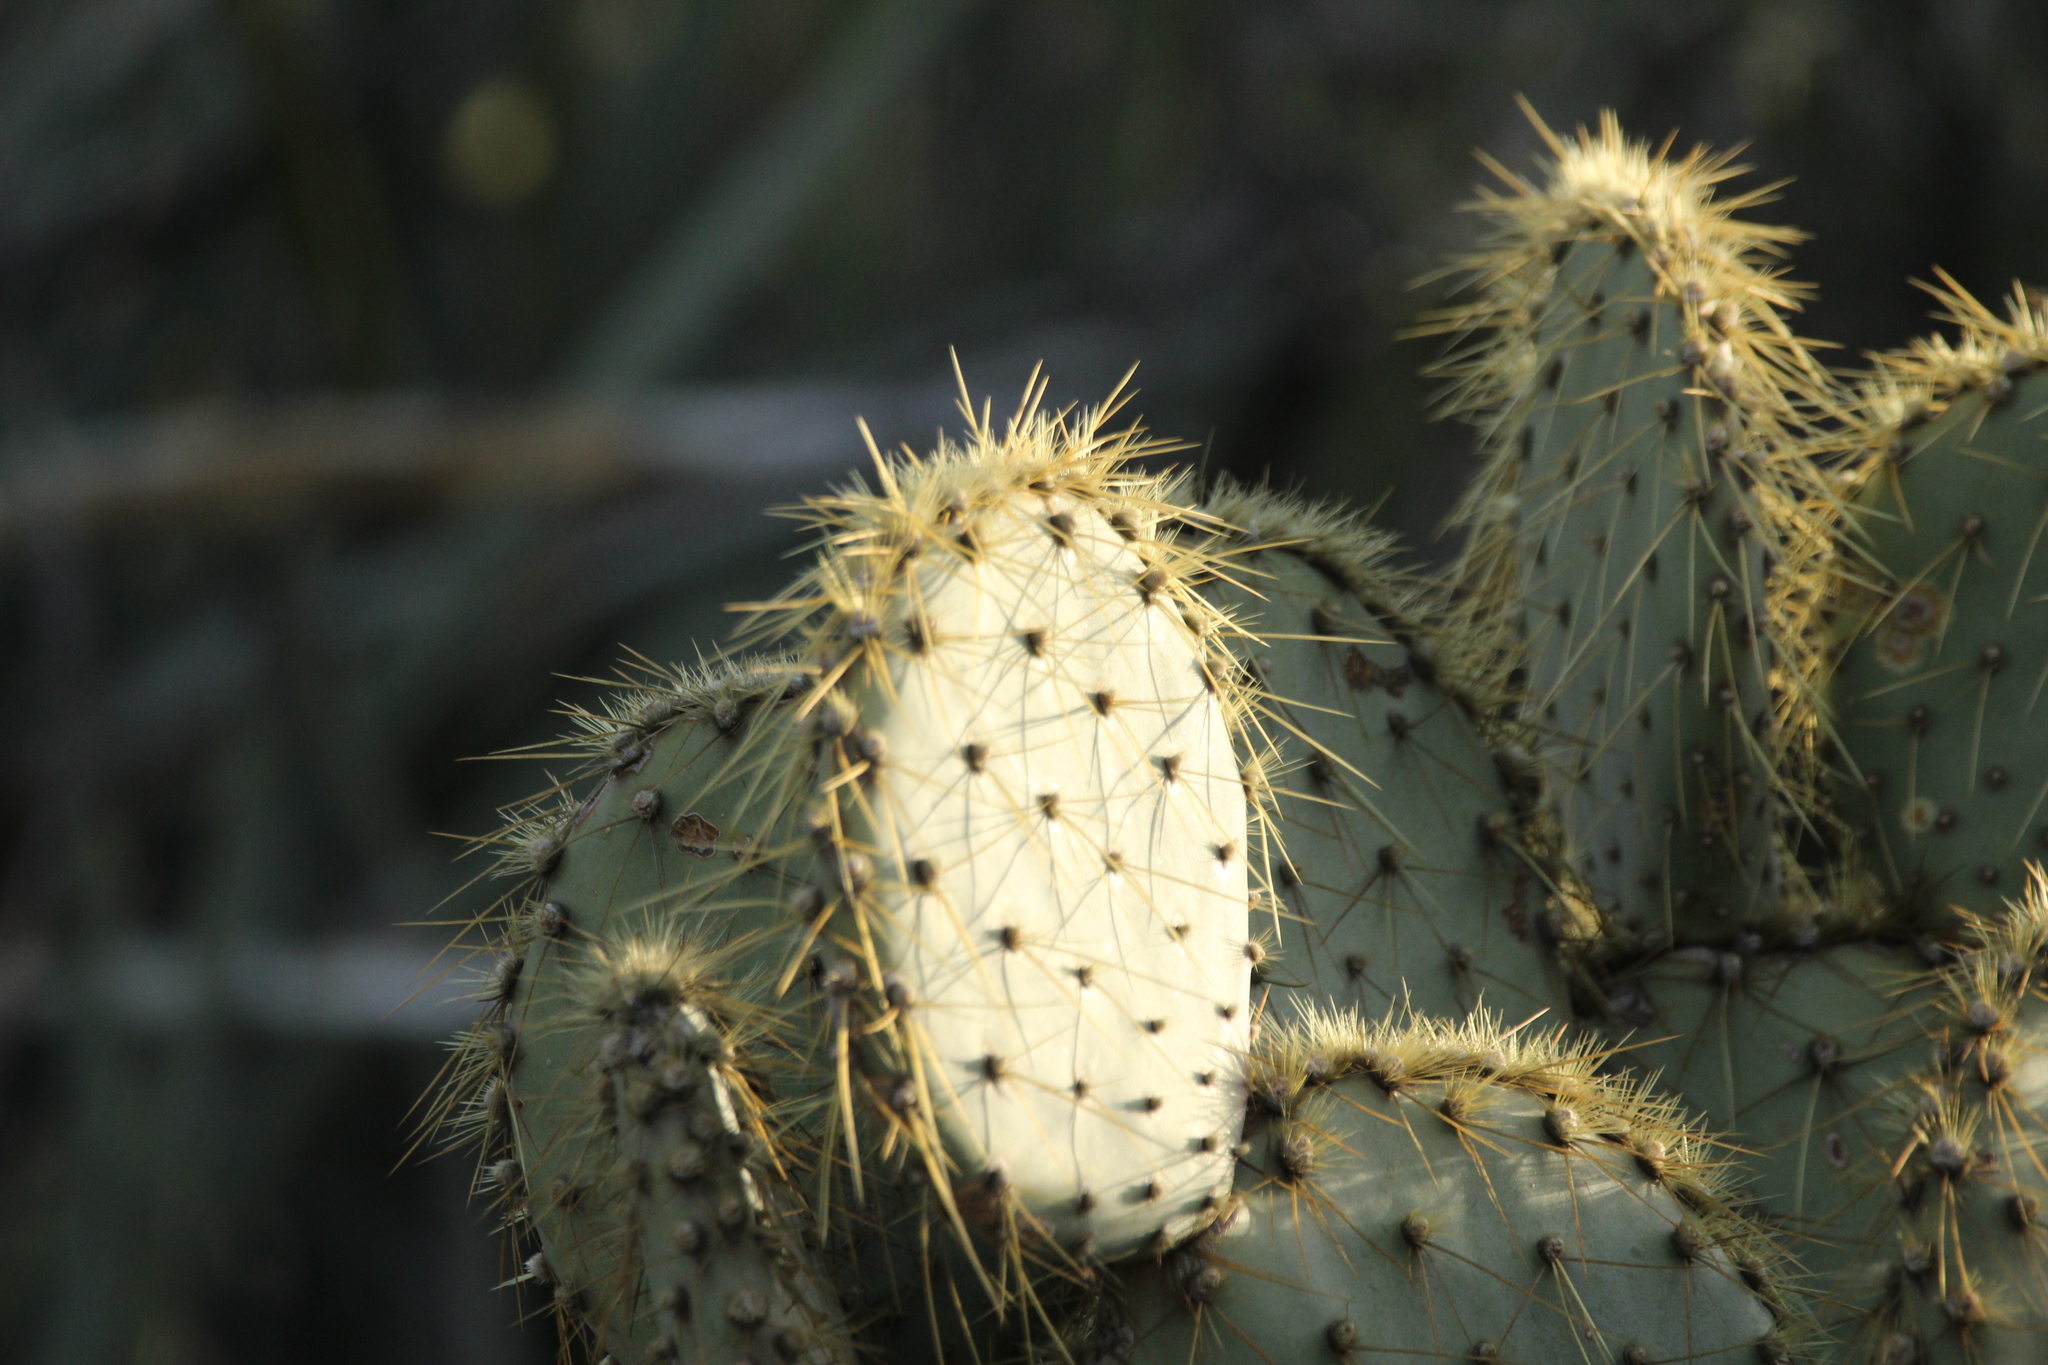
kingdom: Plantae
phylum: Tracheophyta
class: Magnoliopsida
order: Caryophyllales
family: Cactaceae
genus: Opuntia
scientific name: Opuntia chlorotica
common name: Dollar-joint prickly-pear
